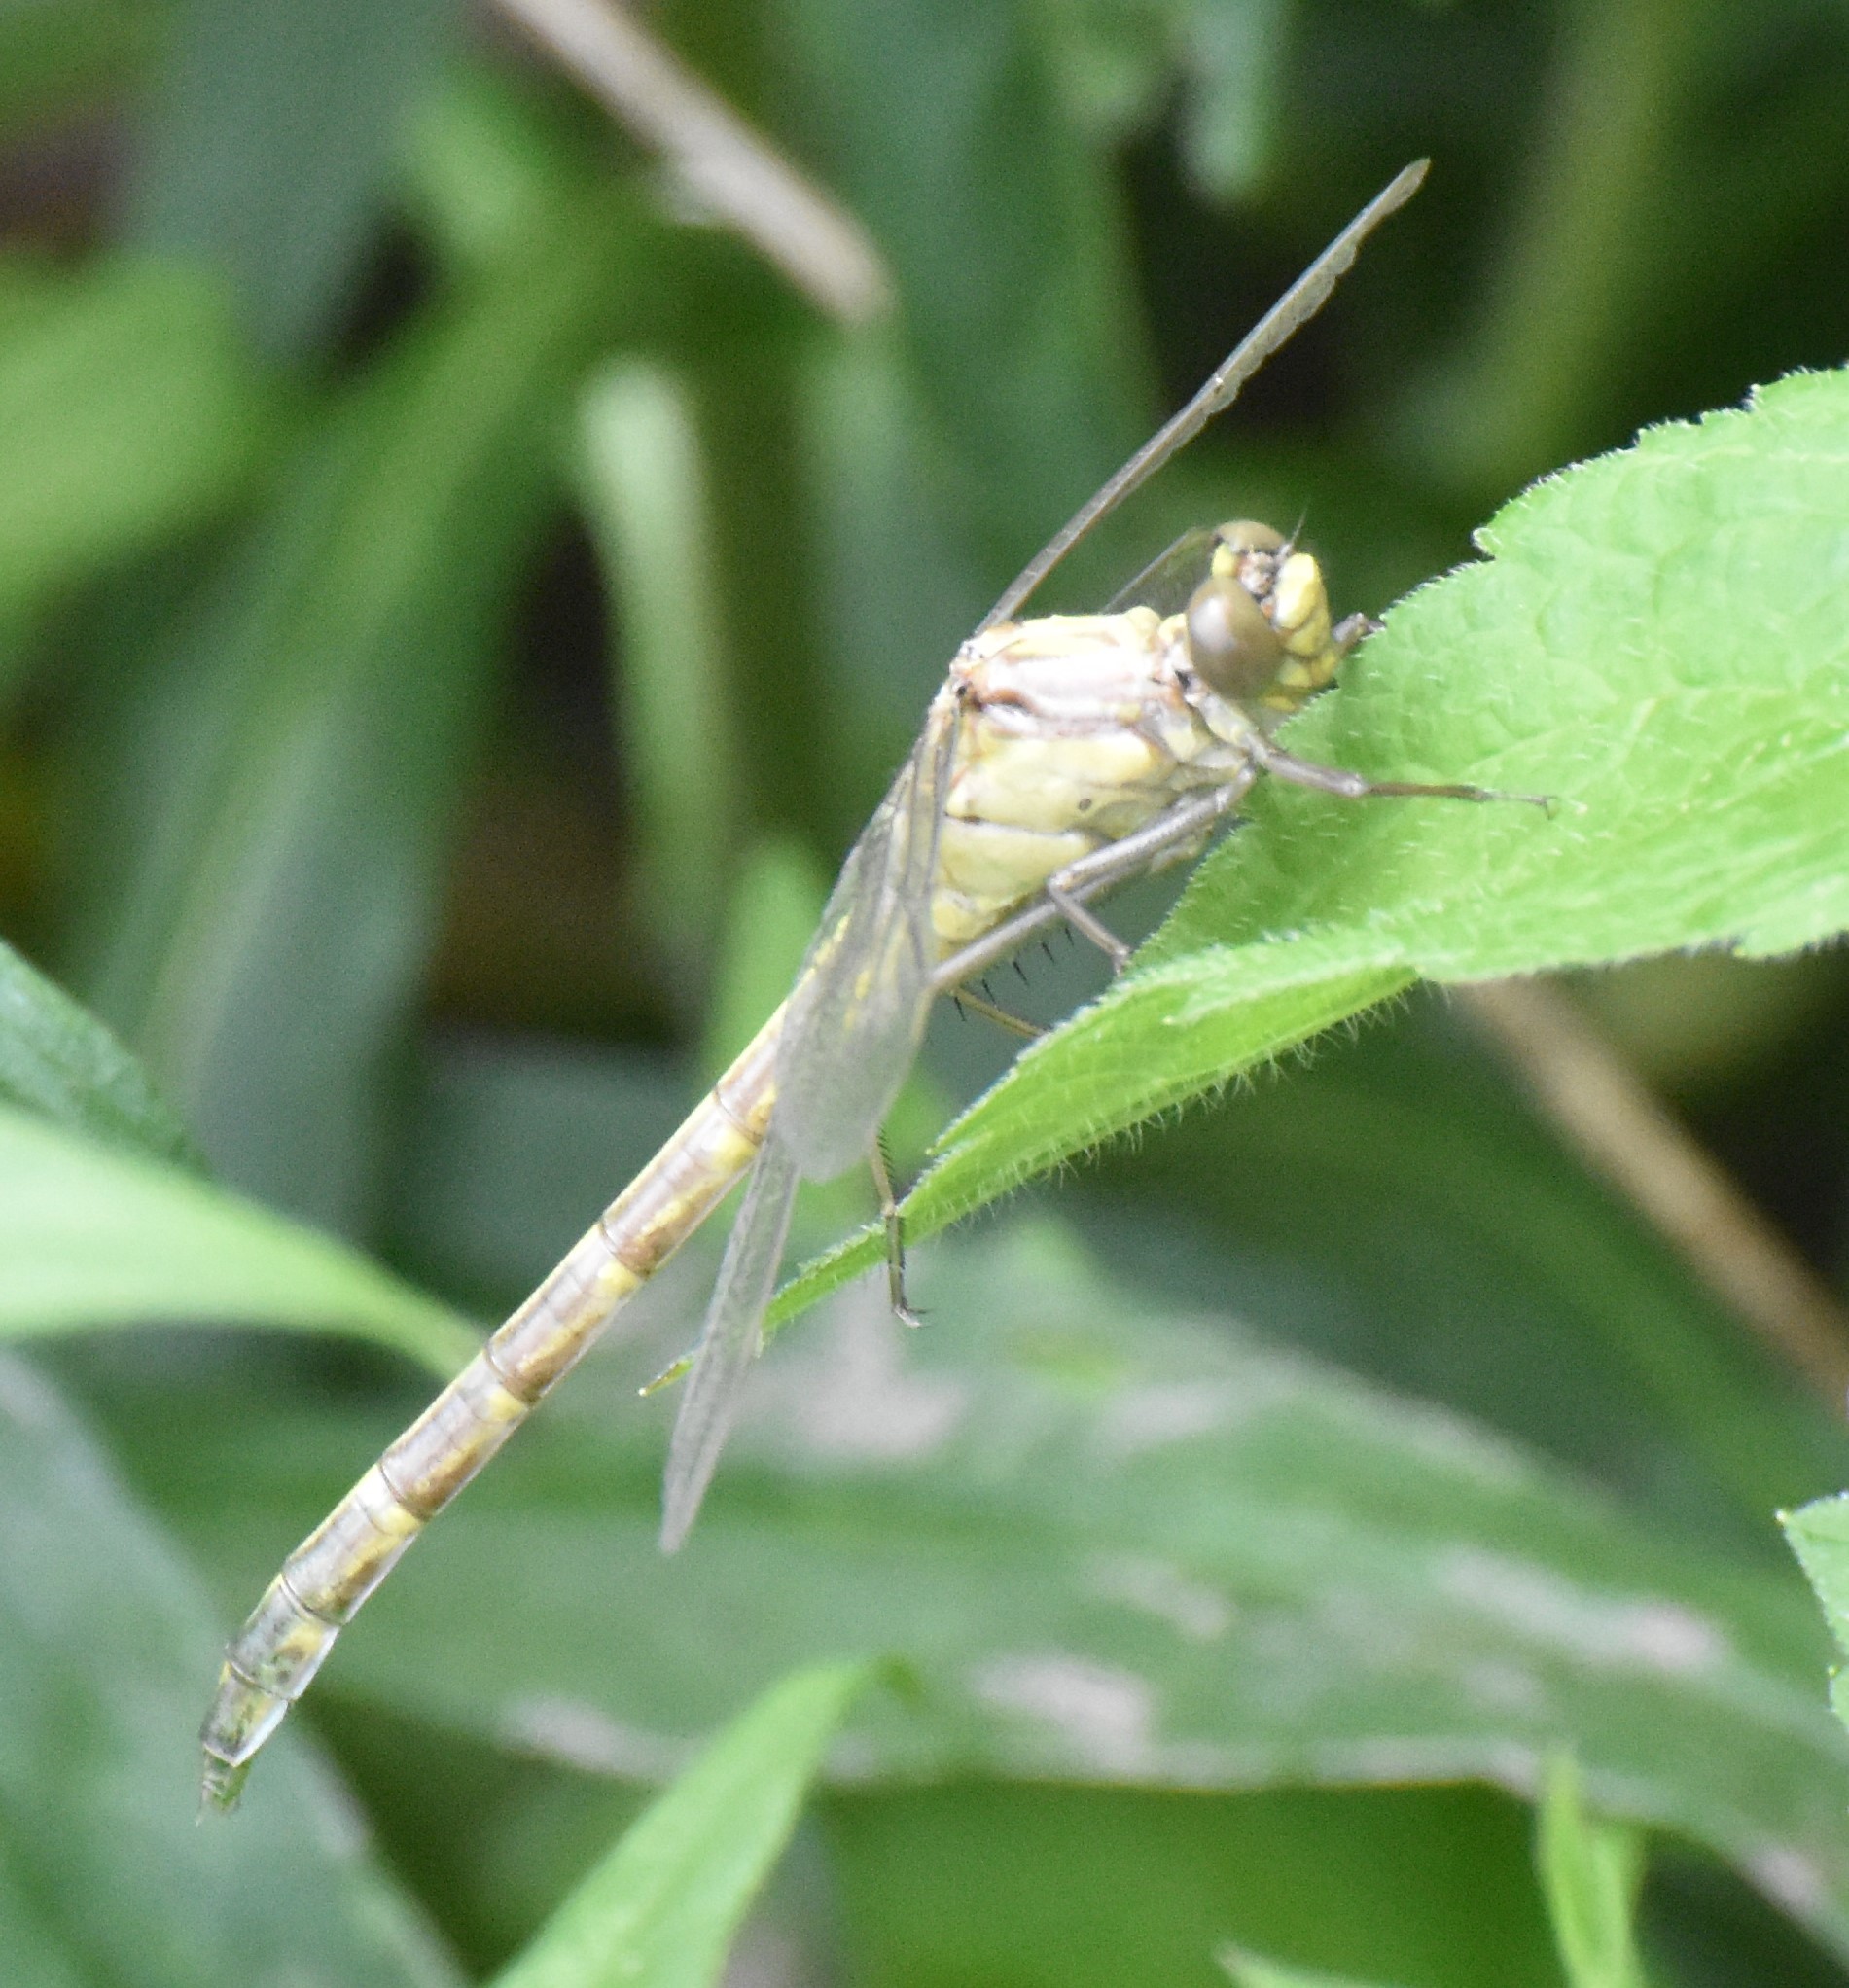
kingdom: Animalia
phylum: Arthropoda
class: Insecta
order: Odonata
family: Gomphidae
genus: Dromogomphus
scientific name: Dromogomphus spinosus
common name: Black-shouldered spinyleg
